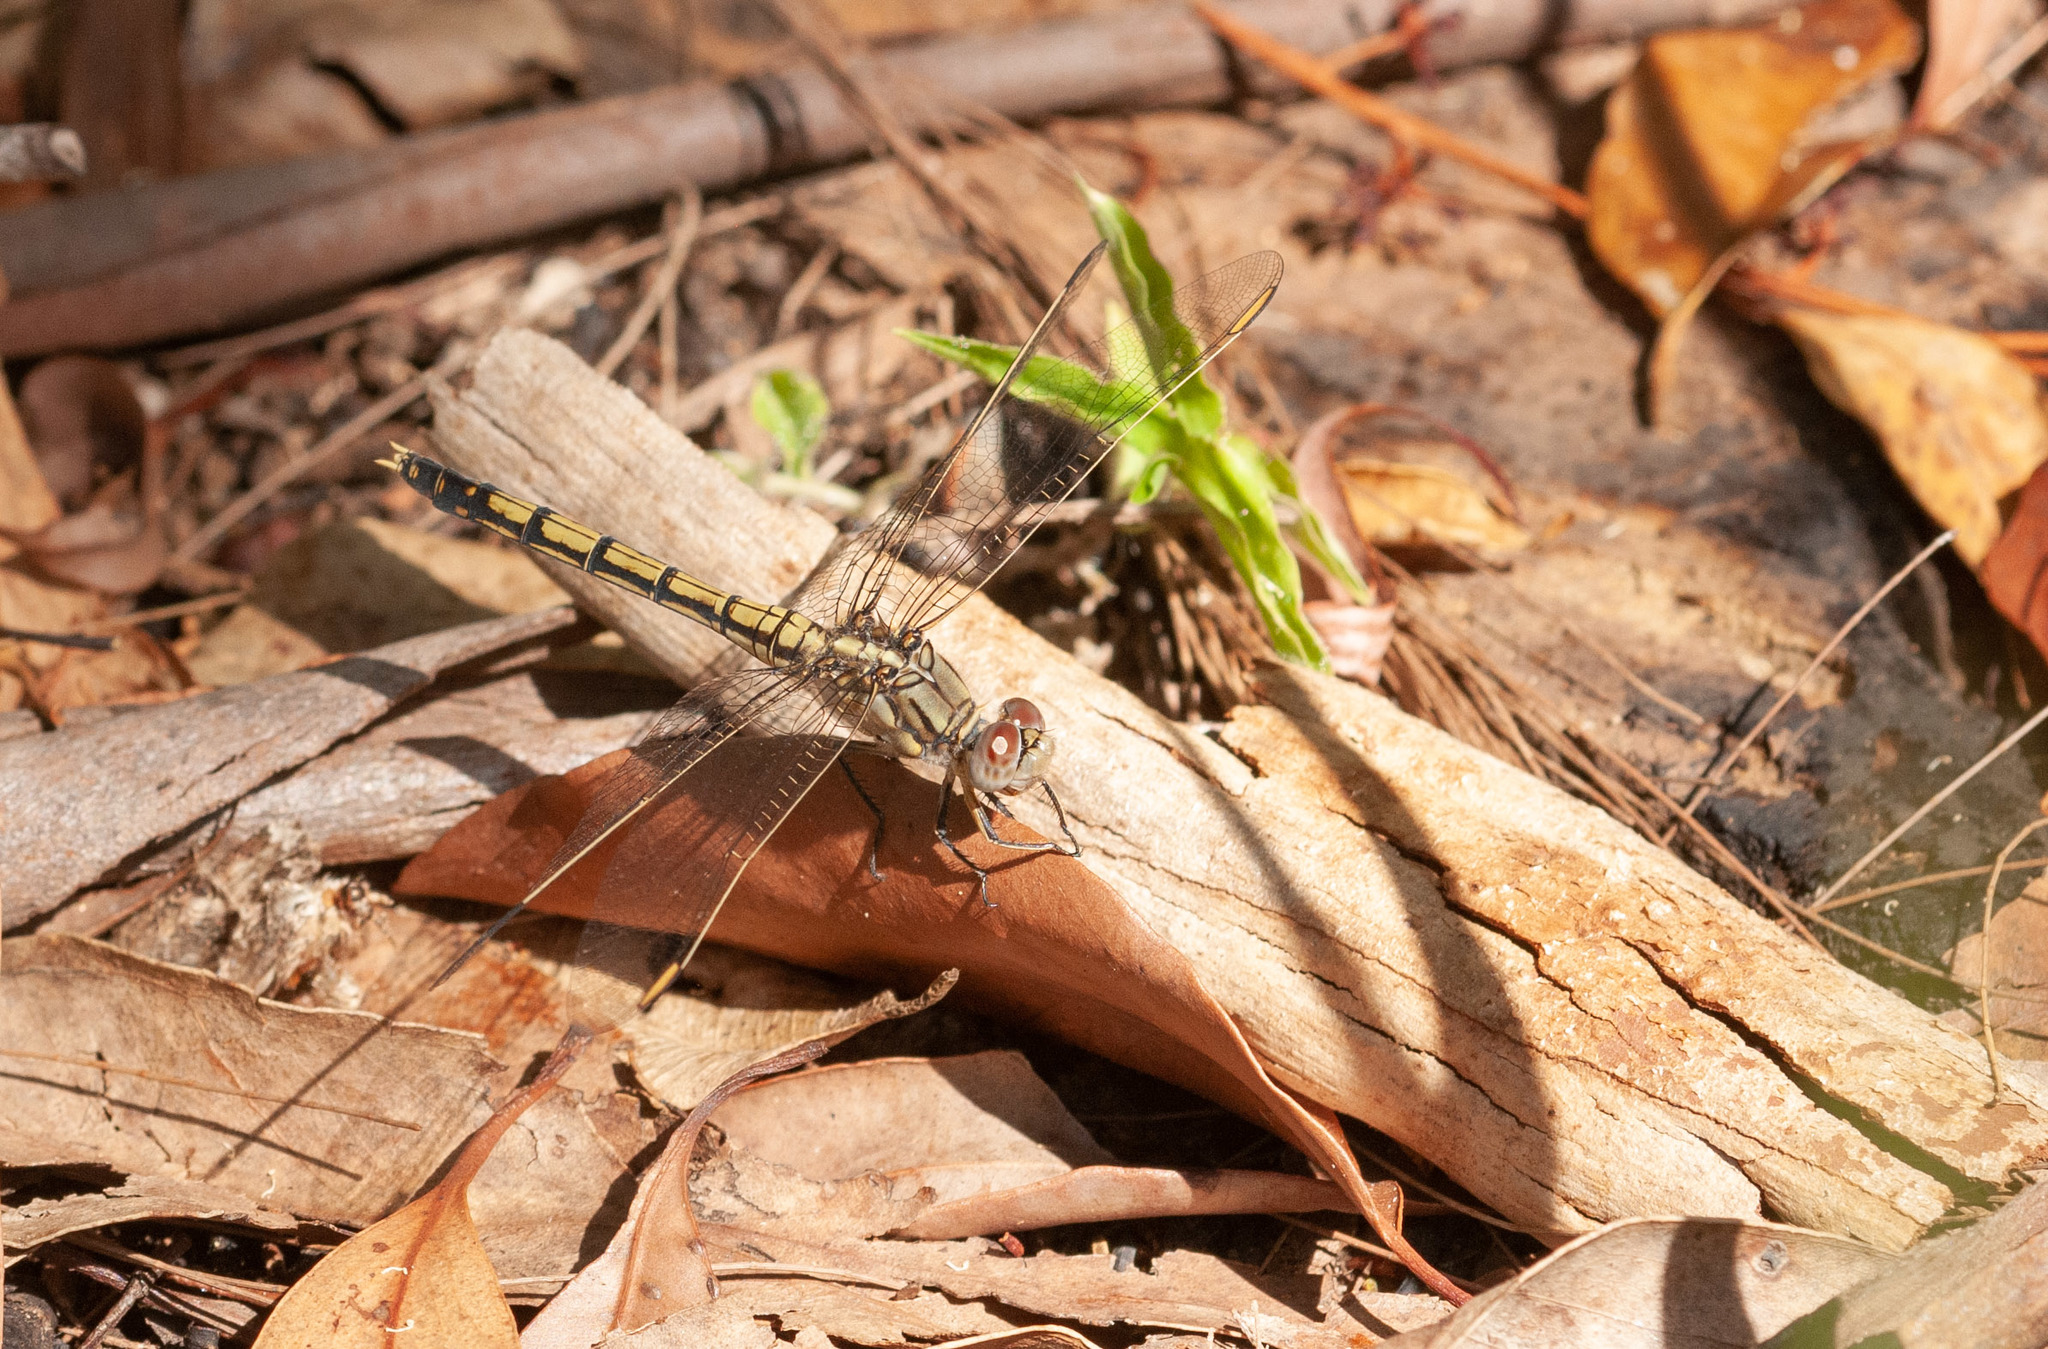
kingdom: Animalia
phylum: Arthropoda
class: Insecta
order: Odonata
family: Libellulidae
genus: Orthetrum
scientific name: Orthetrum caledonicum
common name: Blue skimmer
